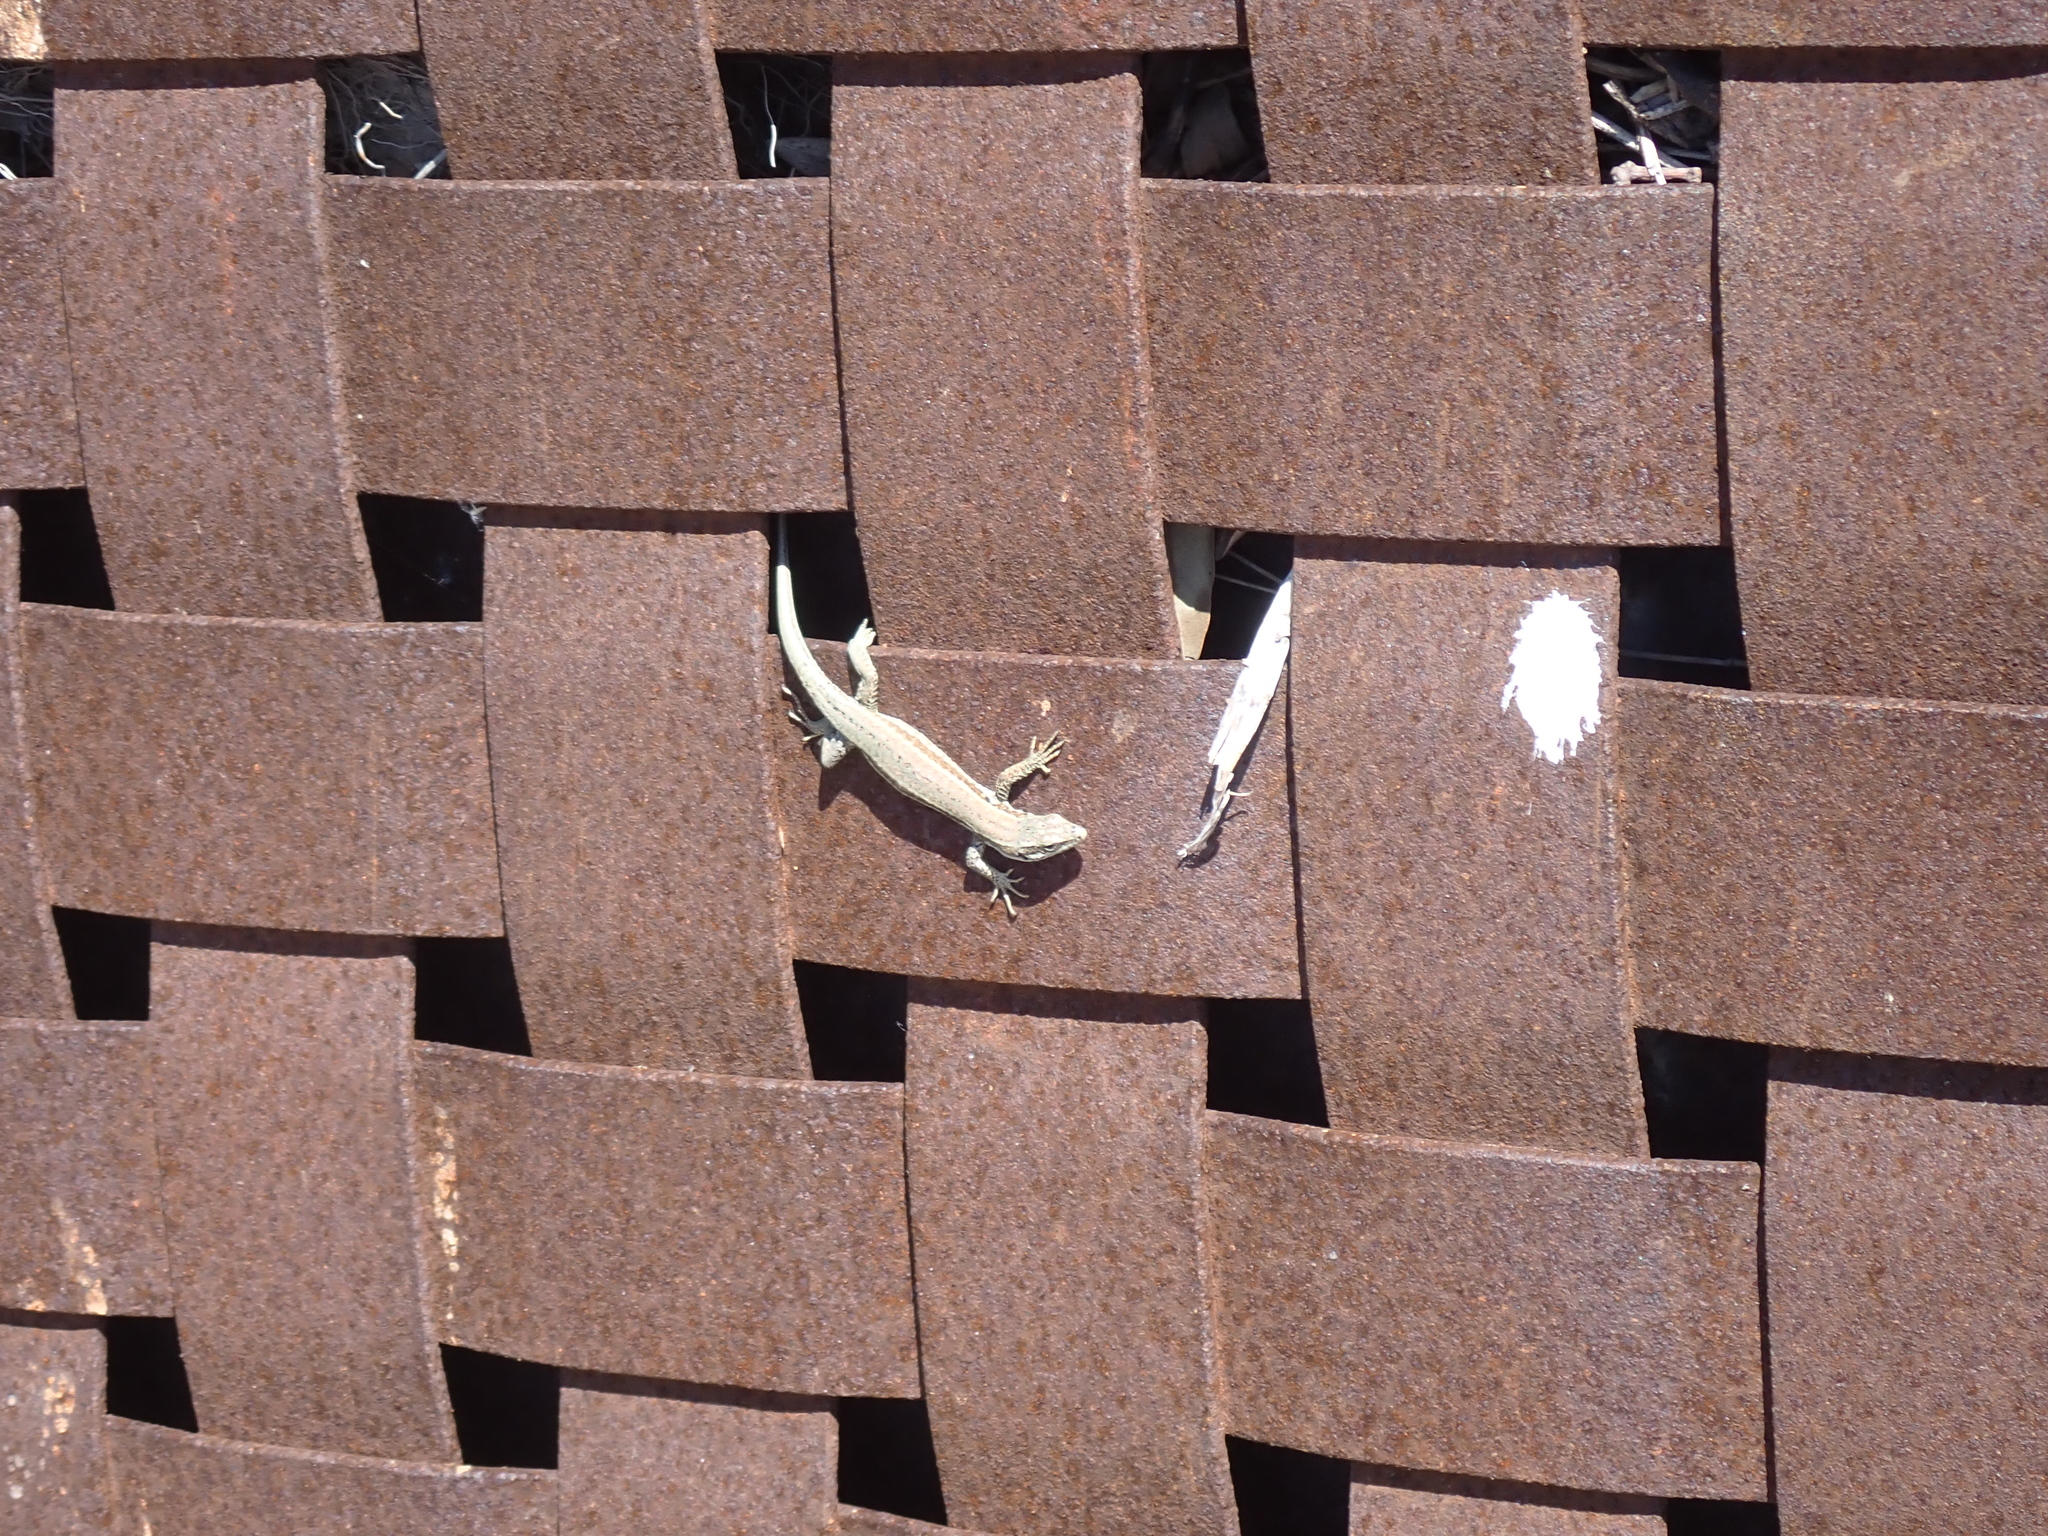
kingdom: Animalia
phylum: Chordata
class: Squamata
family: Lacertidae
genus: Podarcis
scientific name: Podarcis muralis
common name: Common wall lizard
